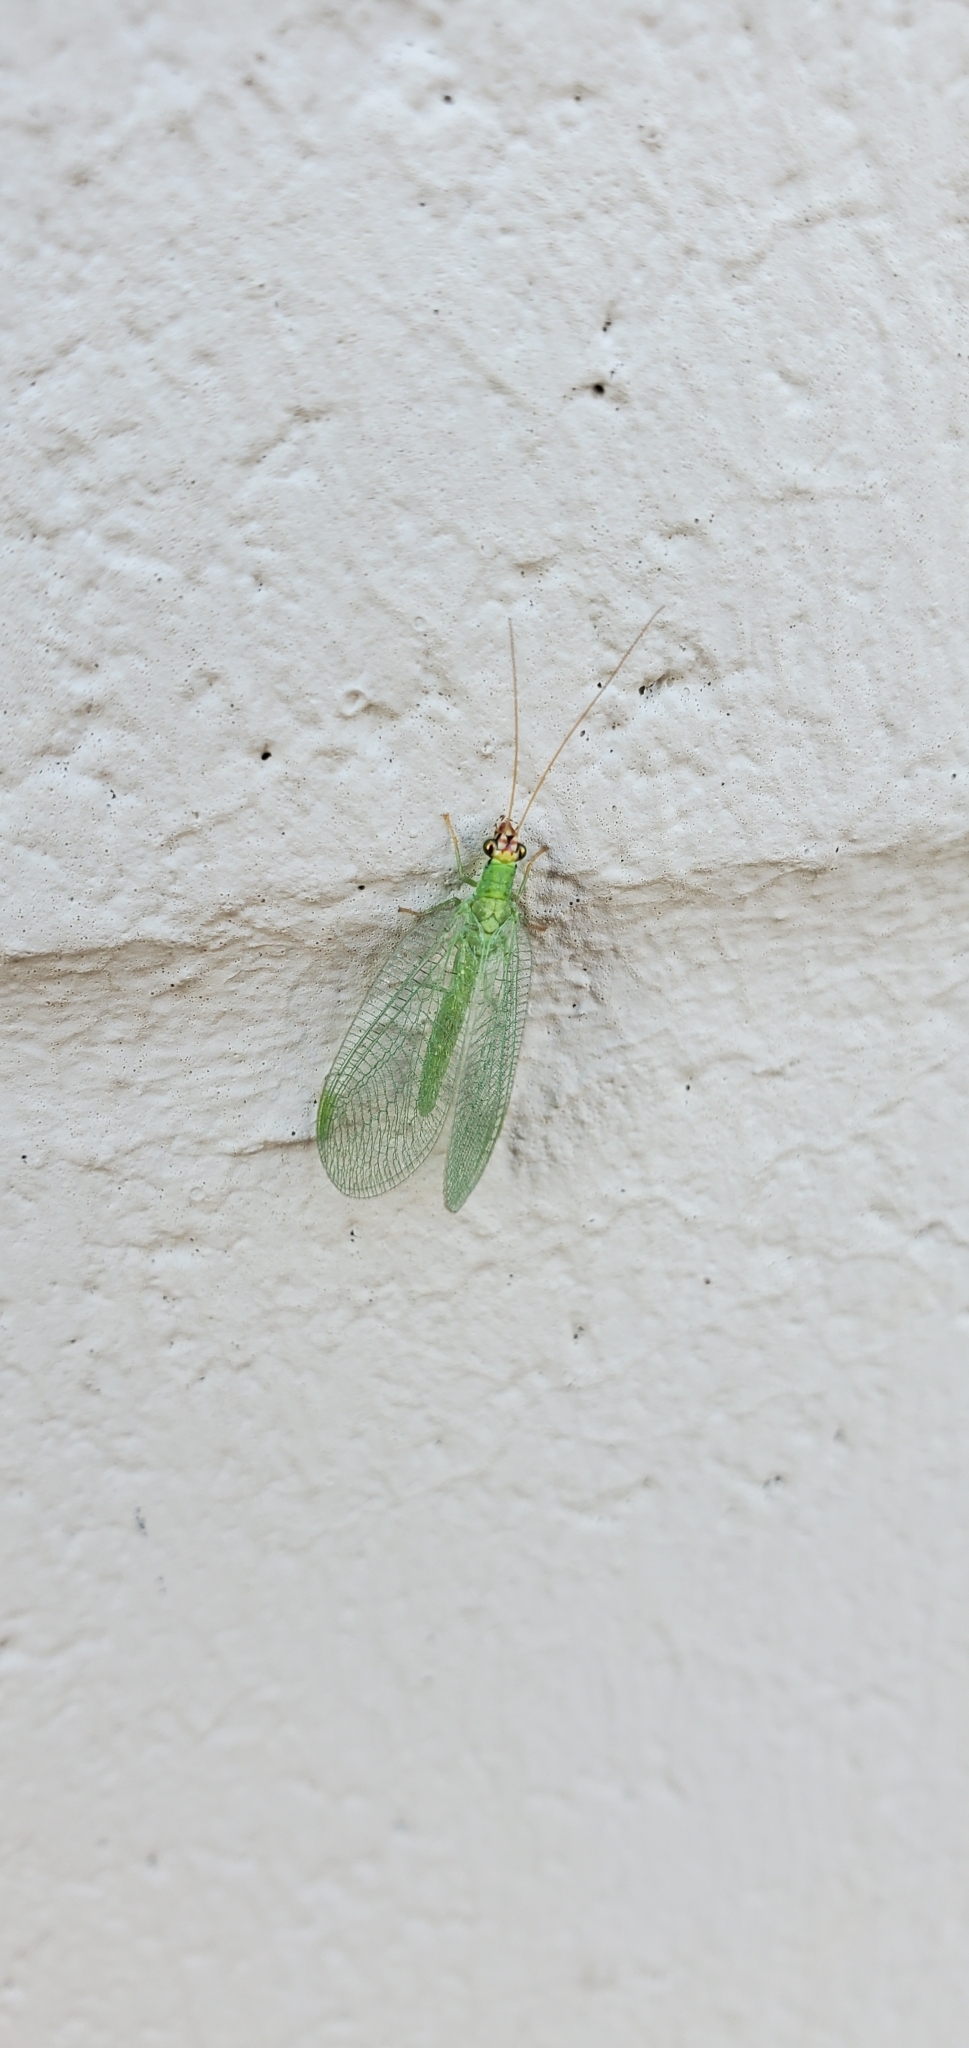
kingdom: Animalia
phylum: Arthropoda
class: Insecta
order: Neuroptera
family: Chrysopidae
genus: Chrysopa
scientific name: Chrysopa oculata
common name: Golden-eyed lacewing
